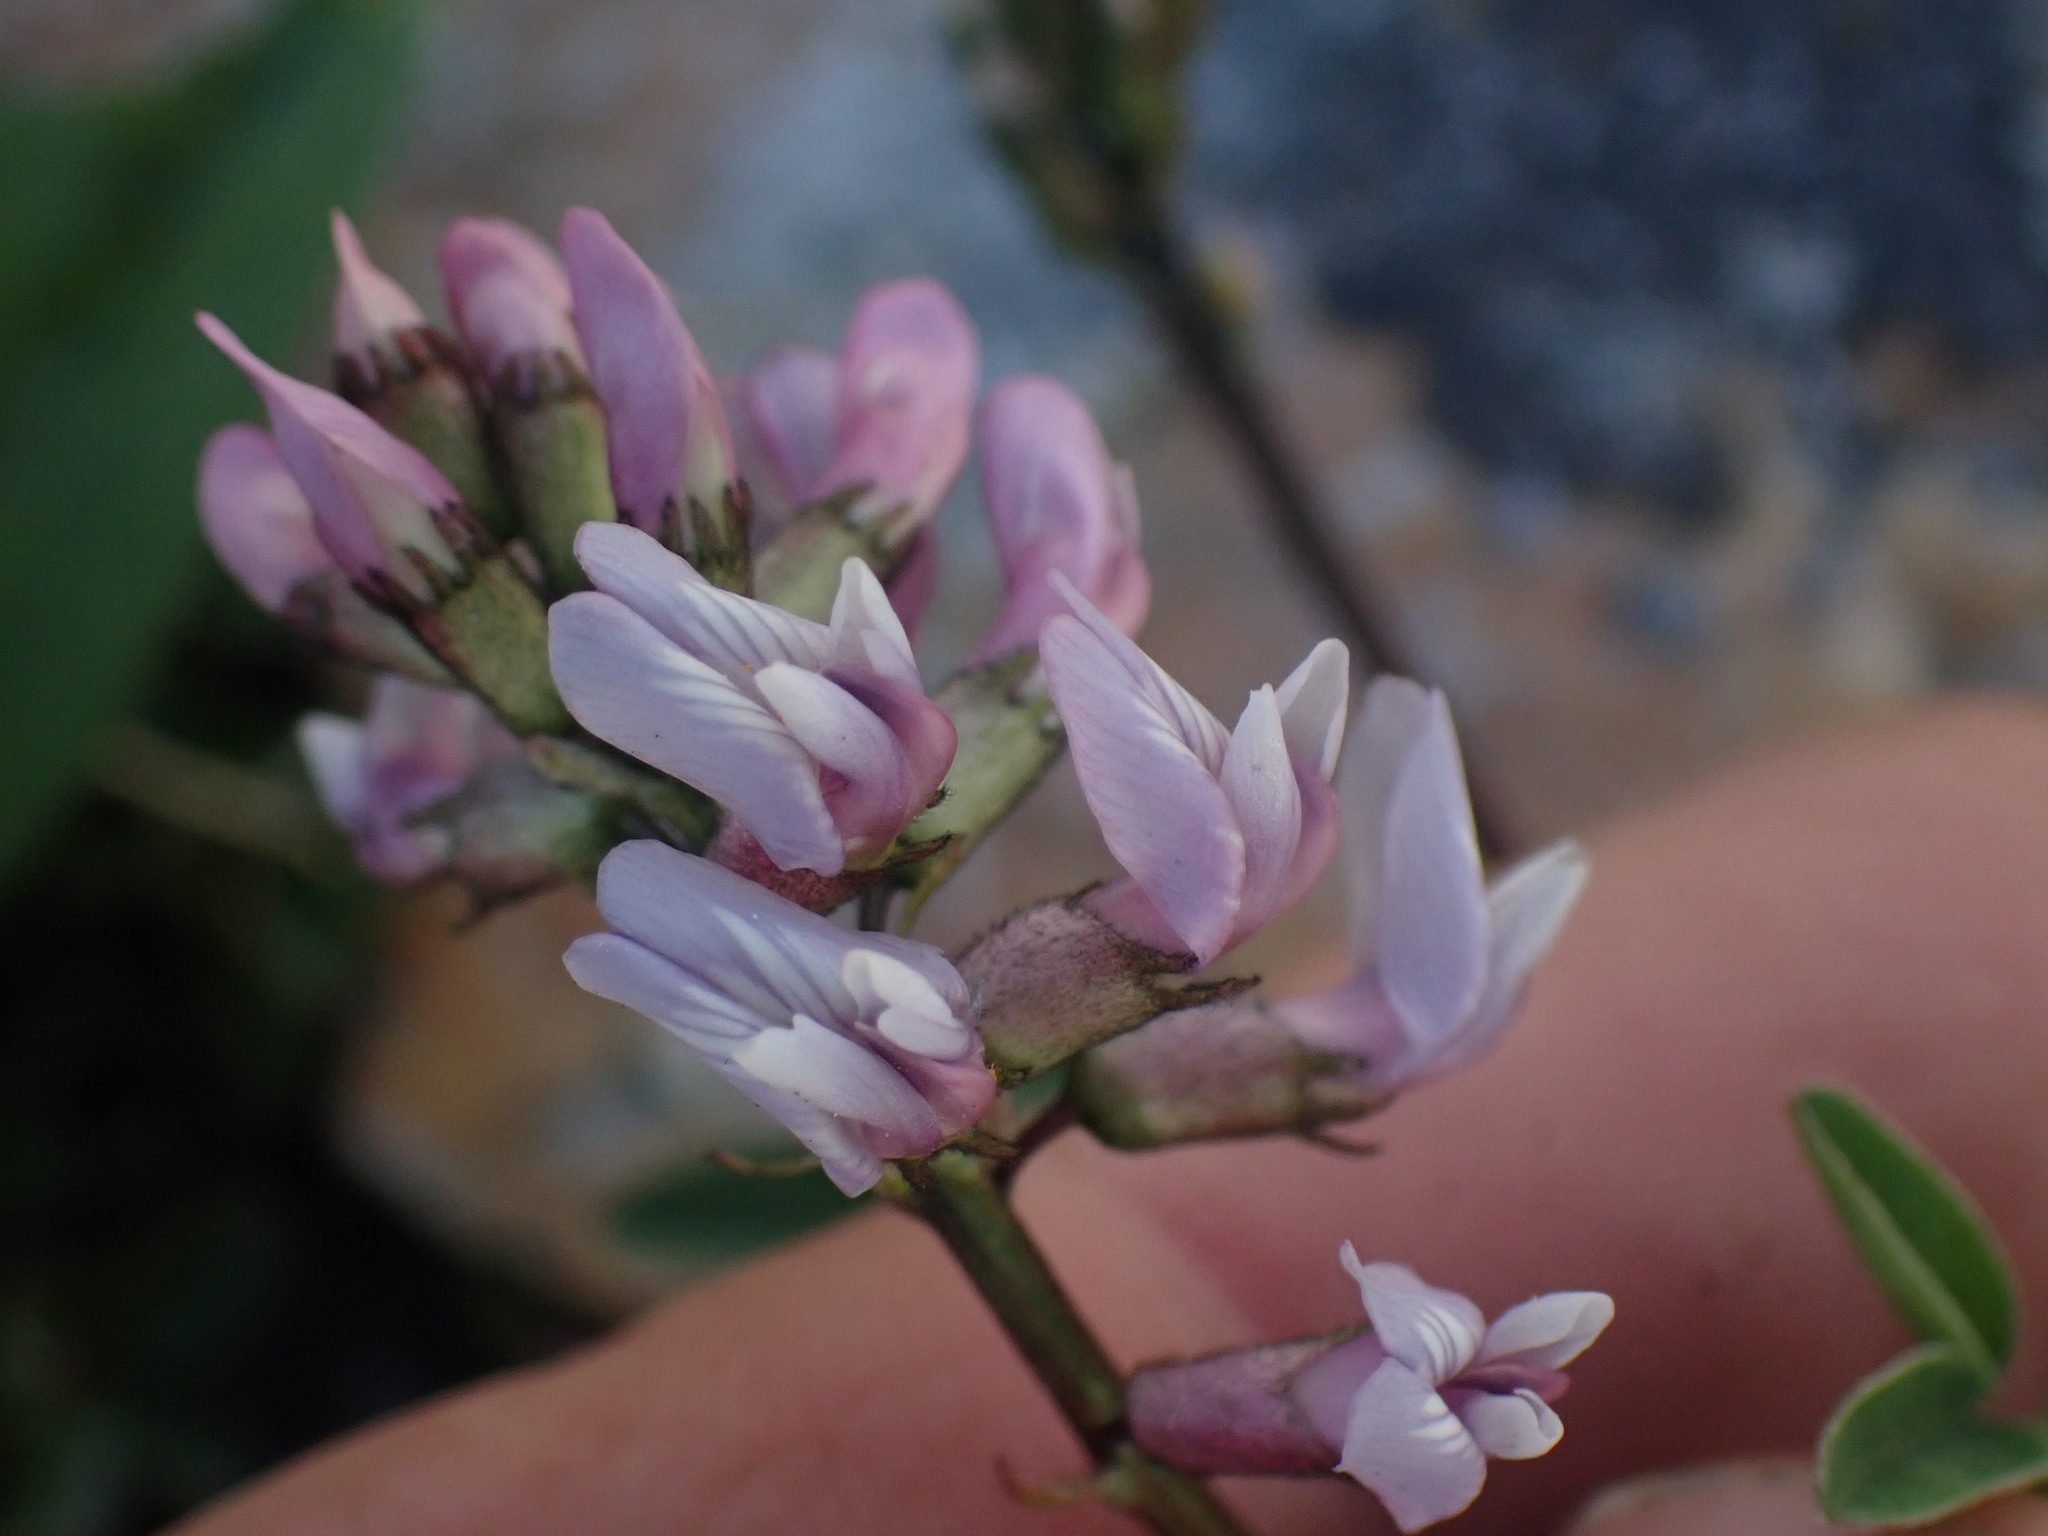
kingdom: Plantae
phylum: Tracheophyta
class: Magnoliopsida
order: Fabales
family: Fabaceae
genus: Astragalus
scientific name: Astragalus robbinsii
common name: Robbins' milk-vetch
